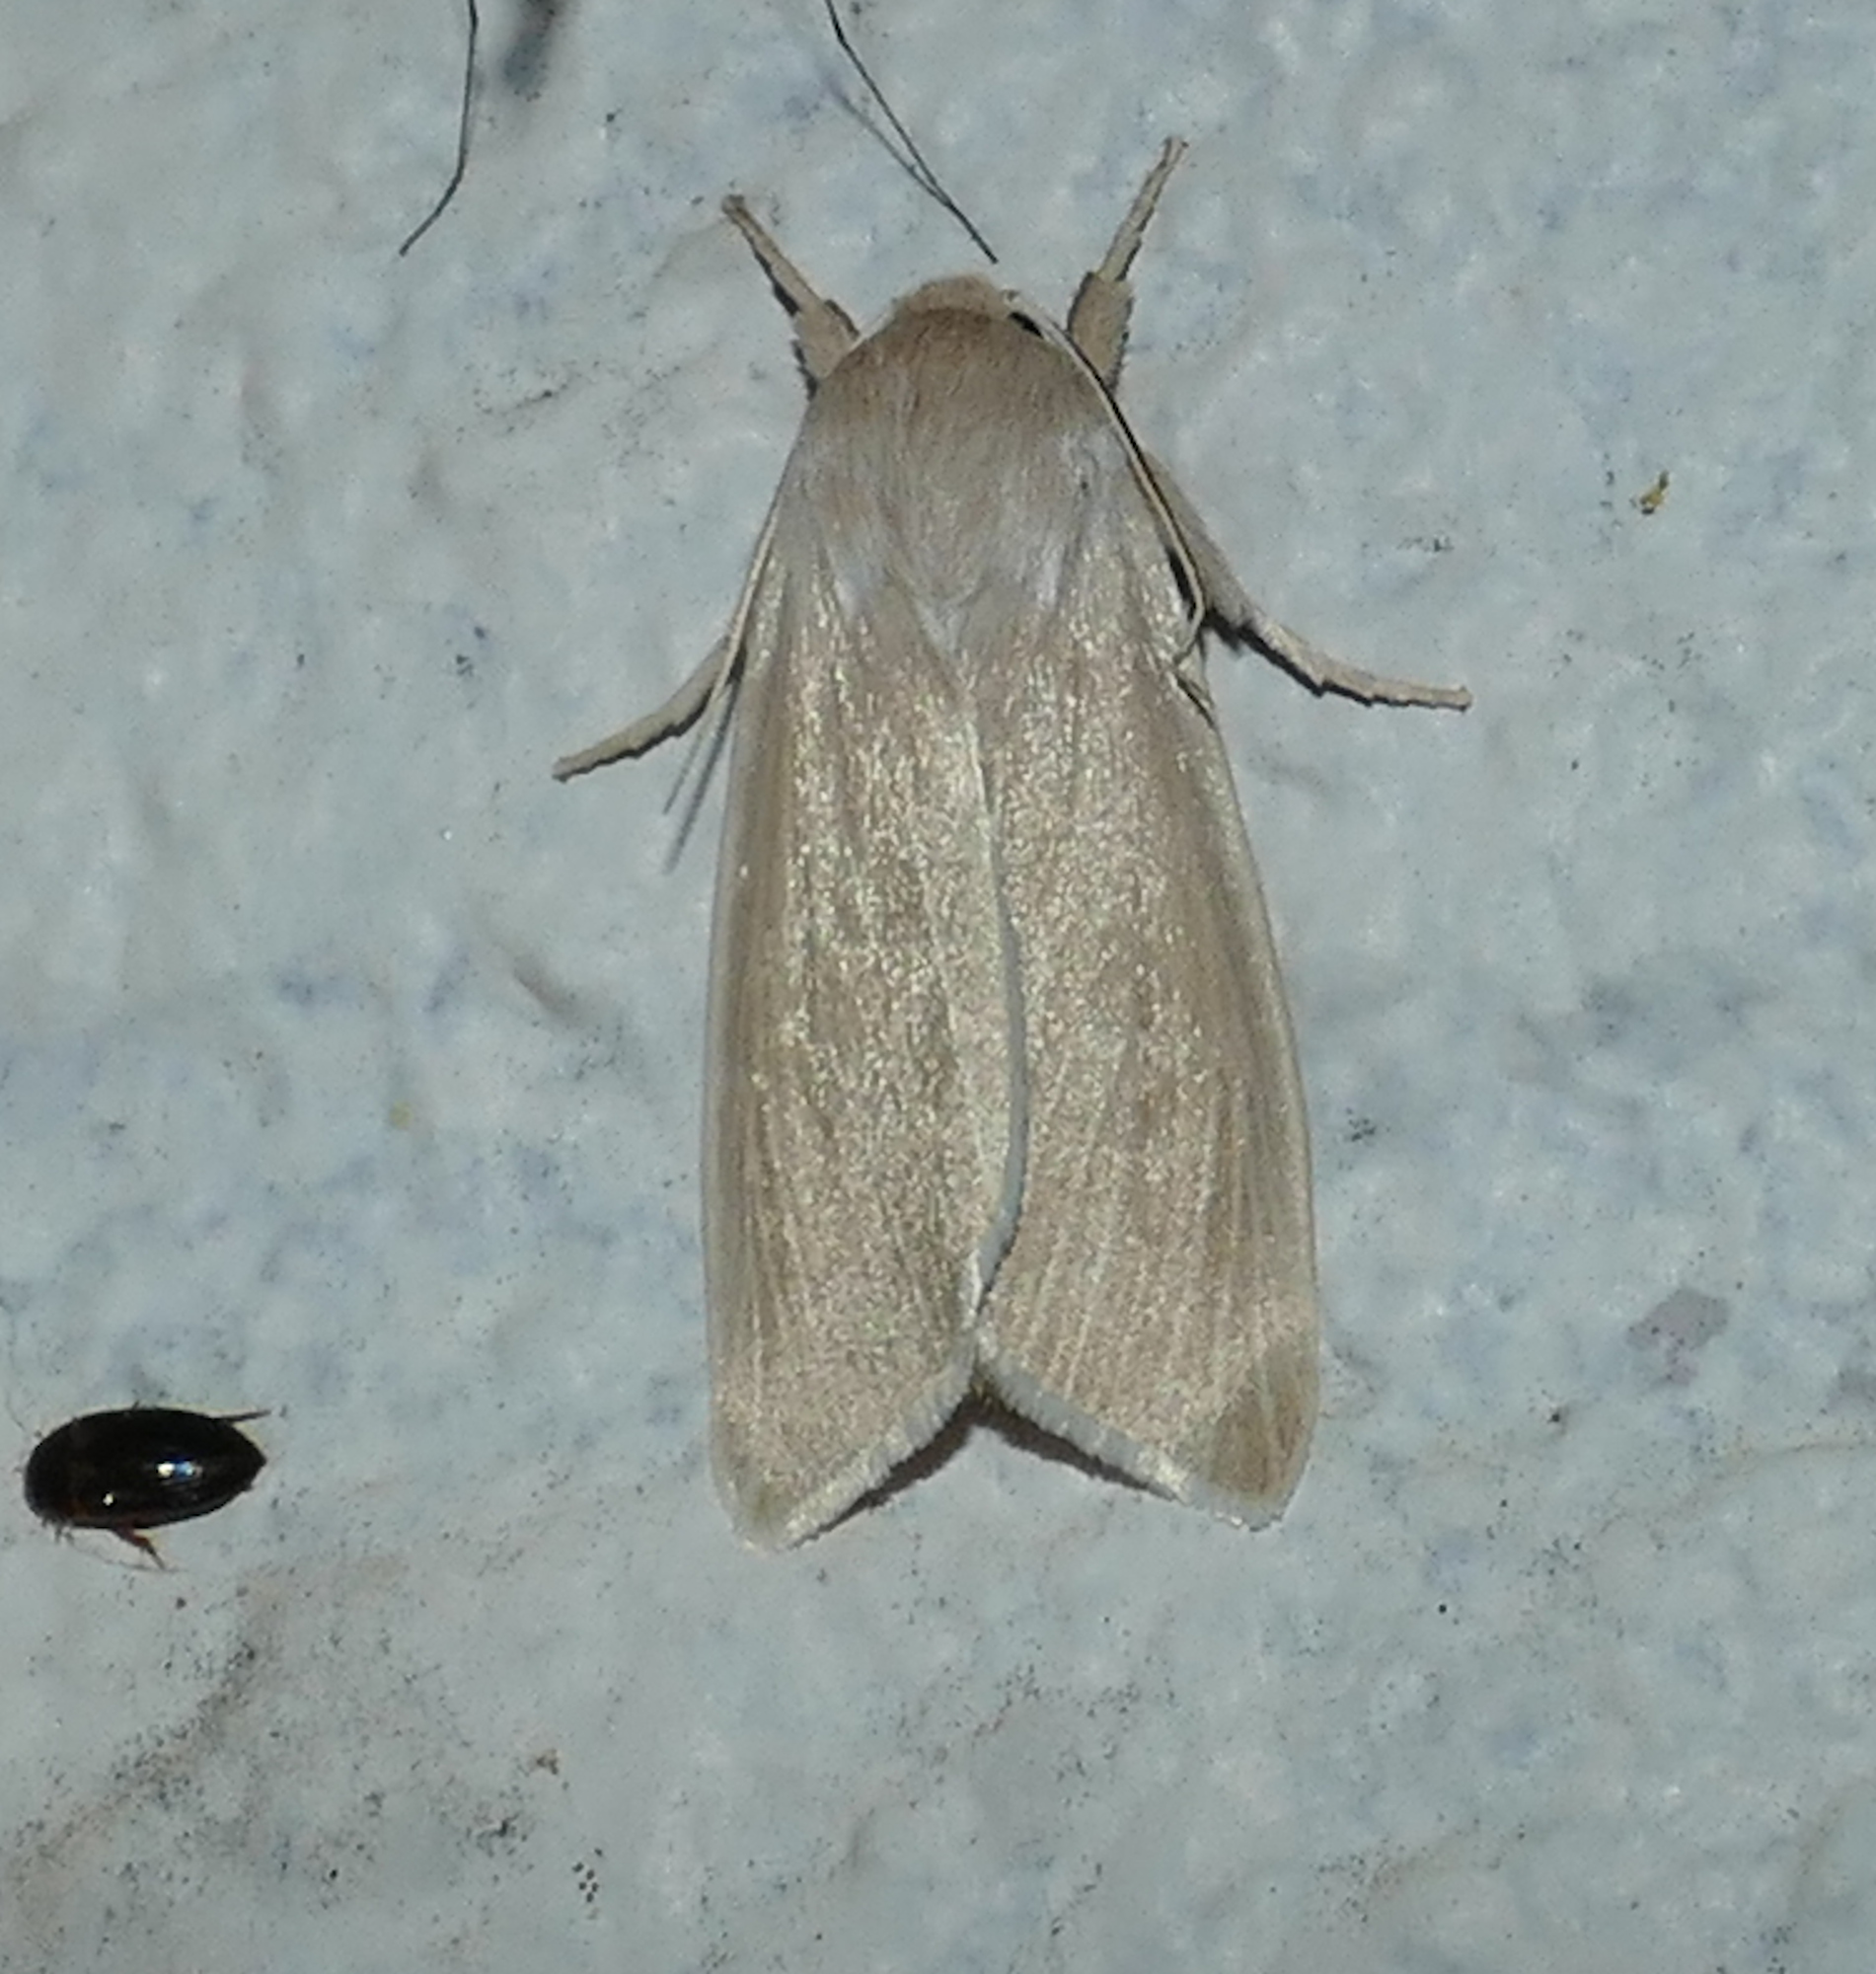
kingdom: Animalia
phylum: Arthropoda
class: Insecta
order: Lepidoptera
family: Noctuidae
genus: Acronicta
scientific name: Acronicta insularis
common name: Henry's marsh moth
